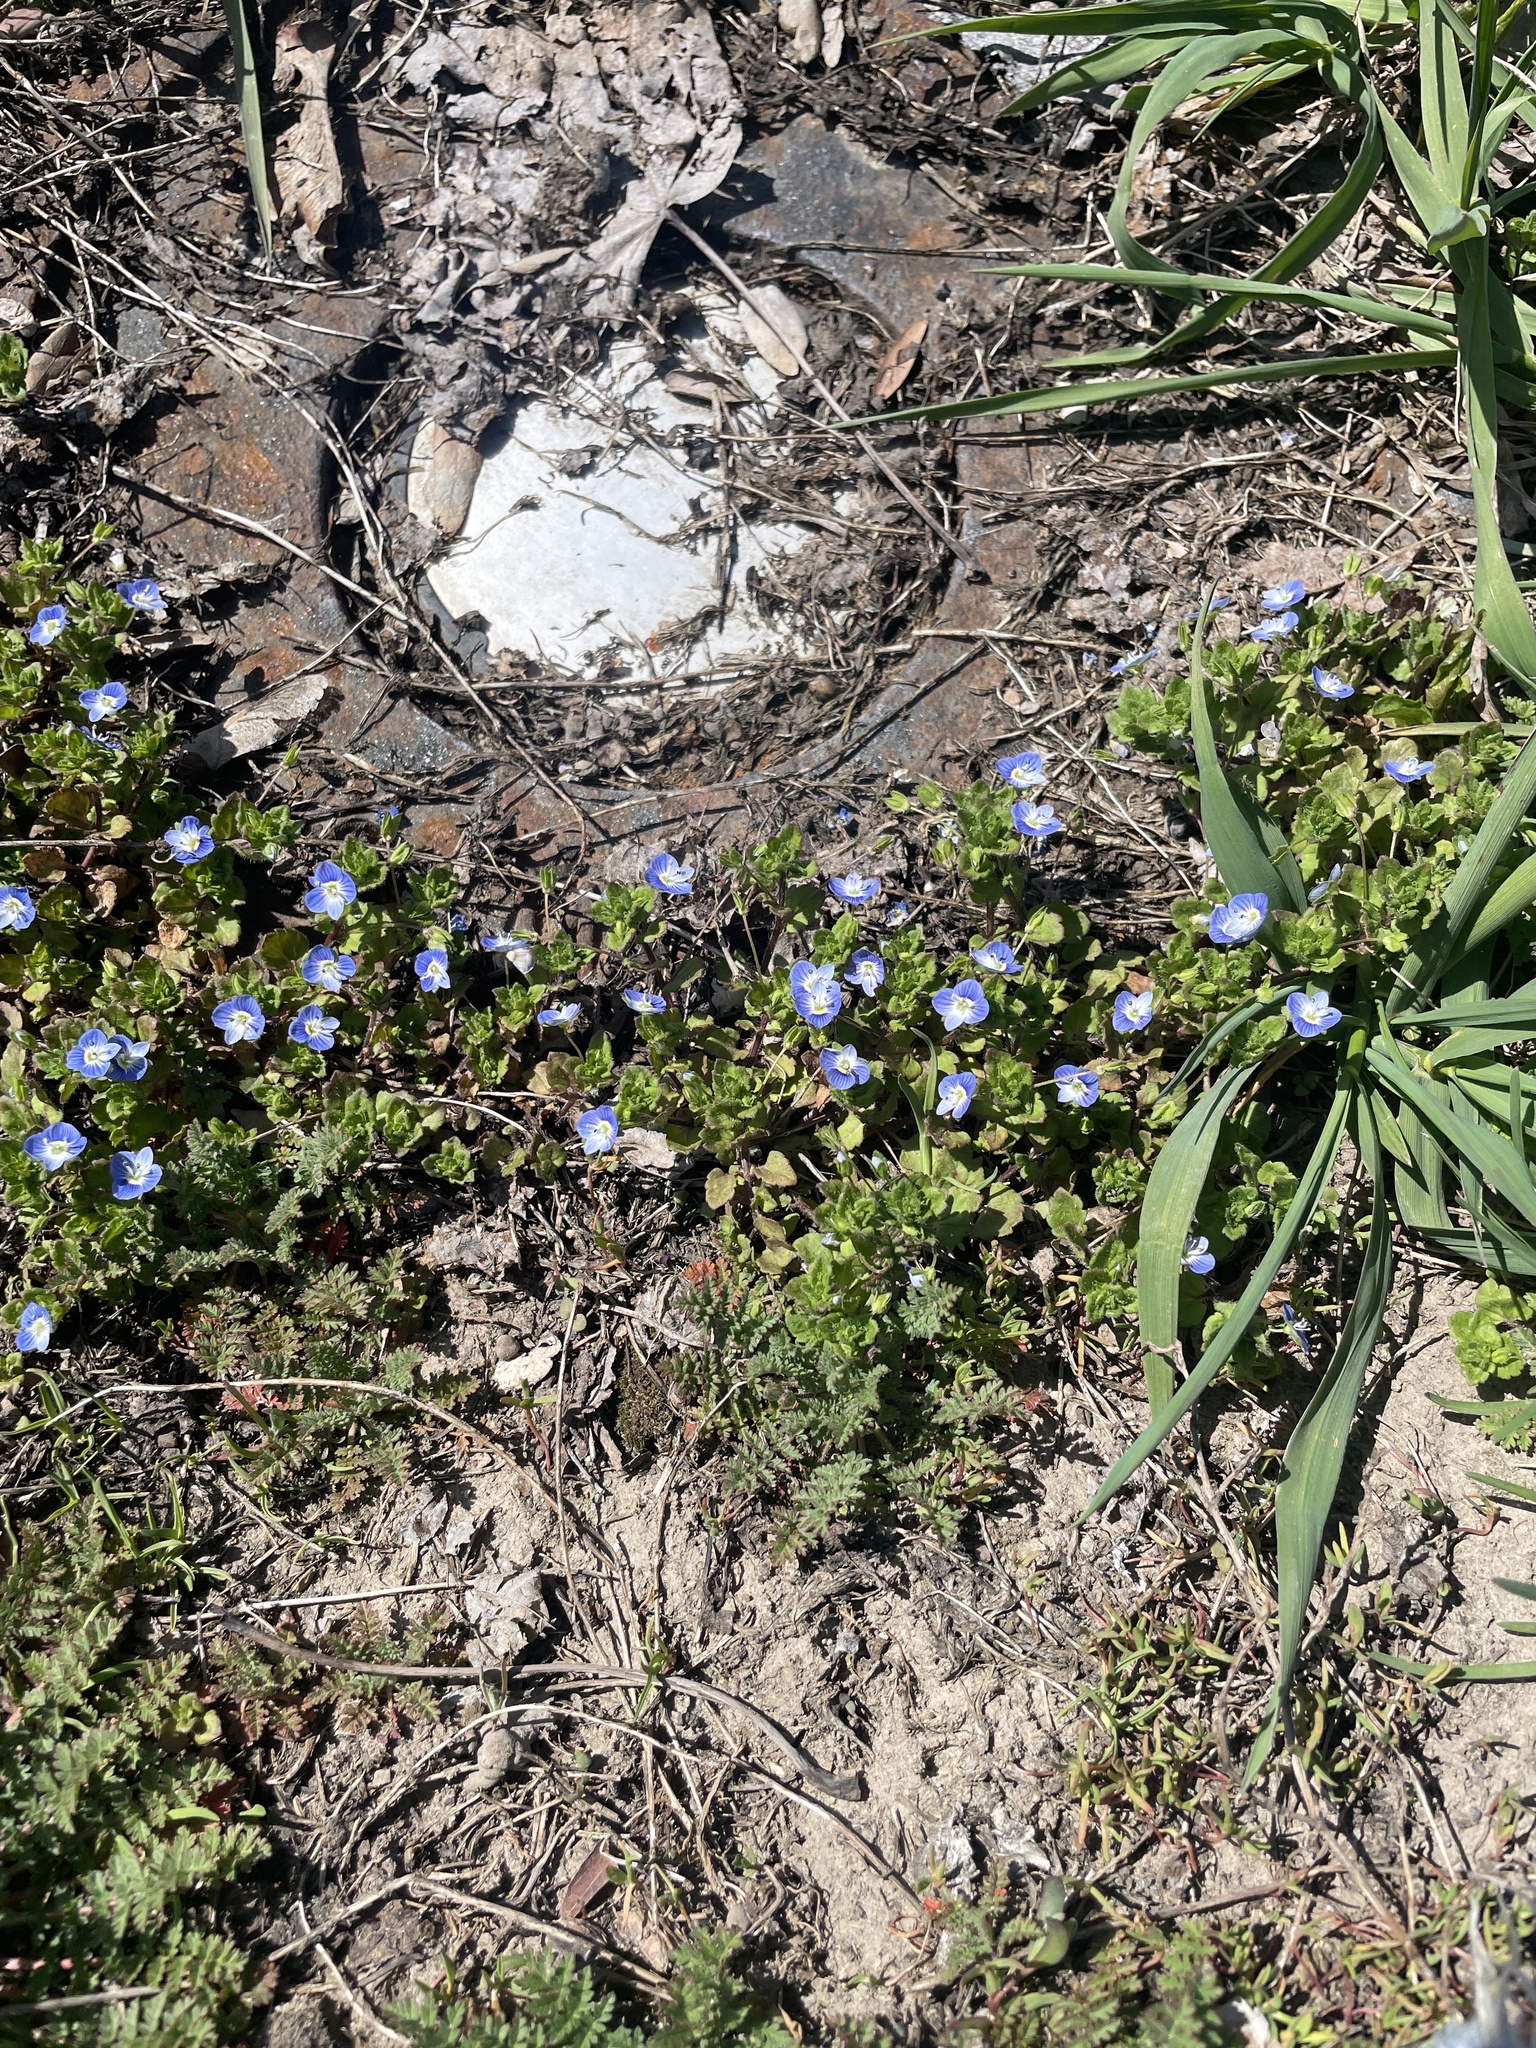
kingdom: Plantae
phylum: Tracheophyta
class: Magnoliopsida
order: Lamiales
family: Plantaginaceae
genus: Veronica
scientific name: Veronica persica
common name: Common field-speedwell
